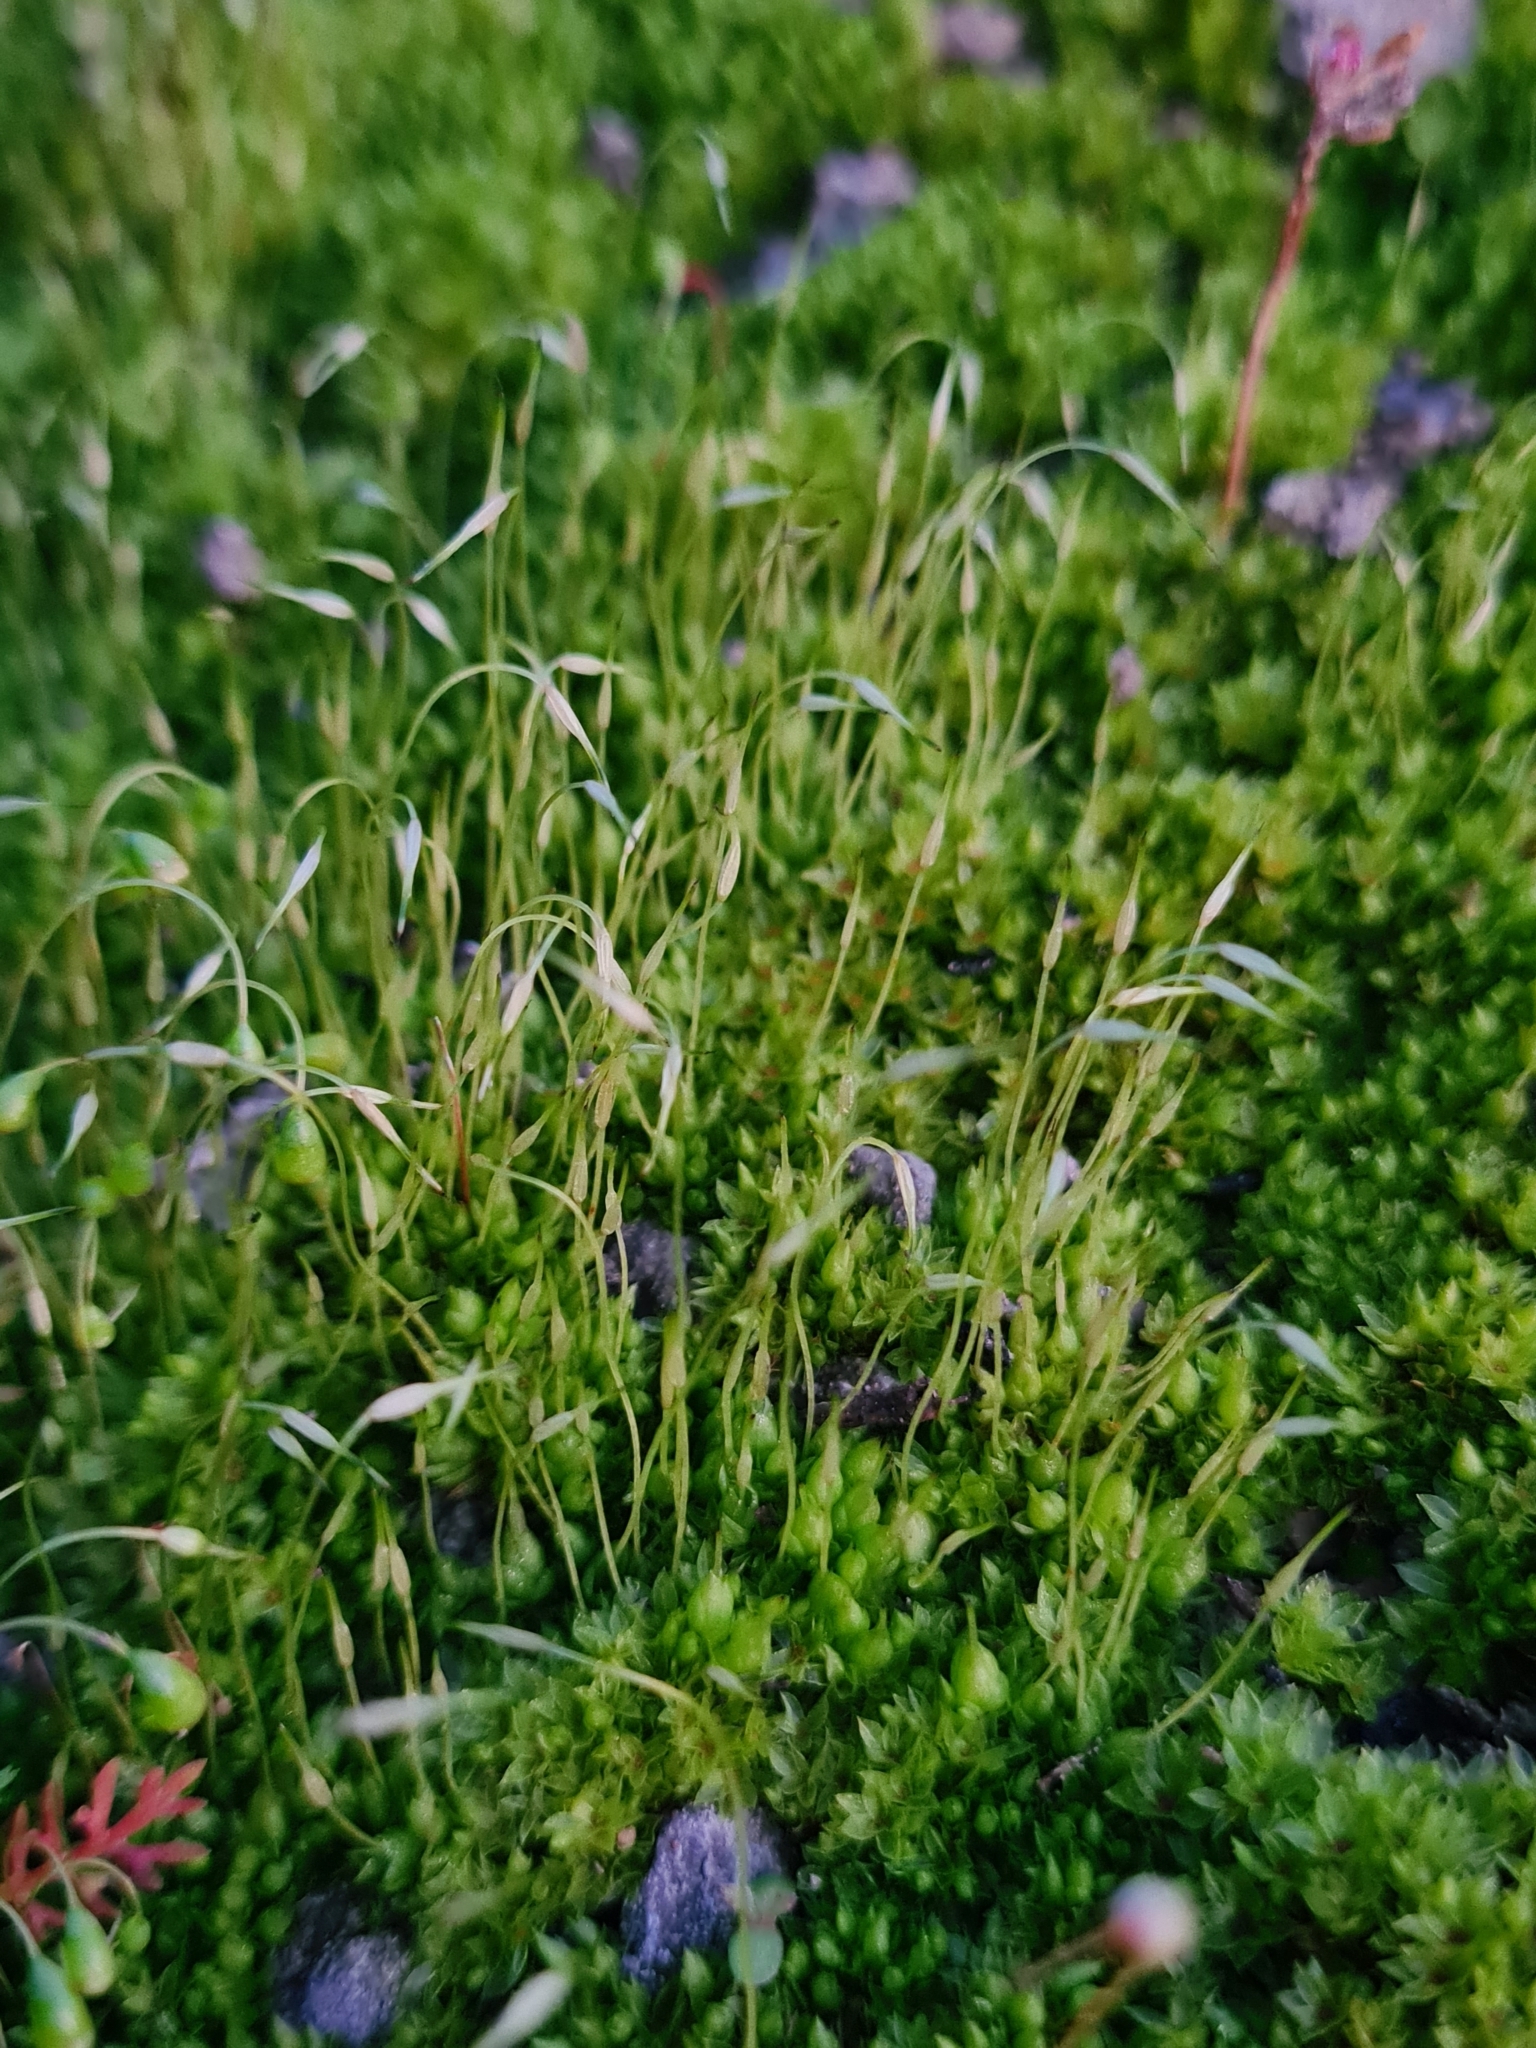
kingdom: Plantae
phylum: Bryophyta
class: Bryopsida
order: Funariales
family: Funariaceae
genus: Funaria
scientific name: Funaria hygrometrica
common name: Common cord moss
